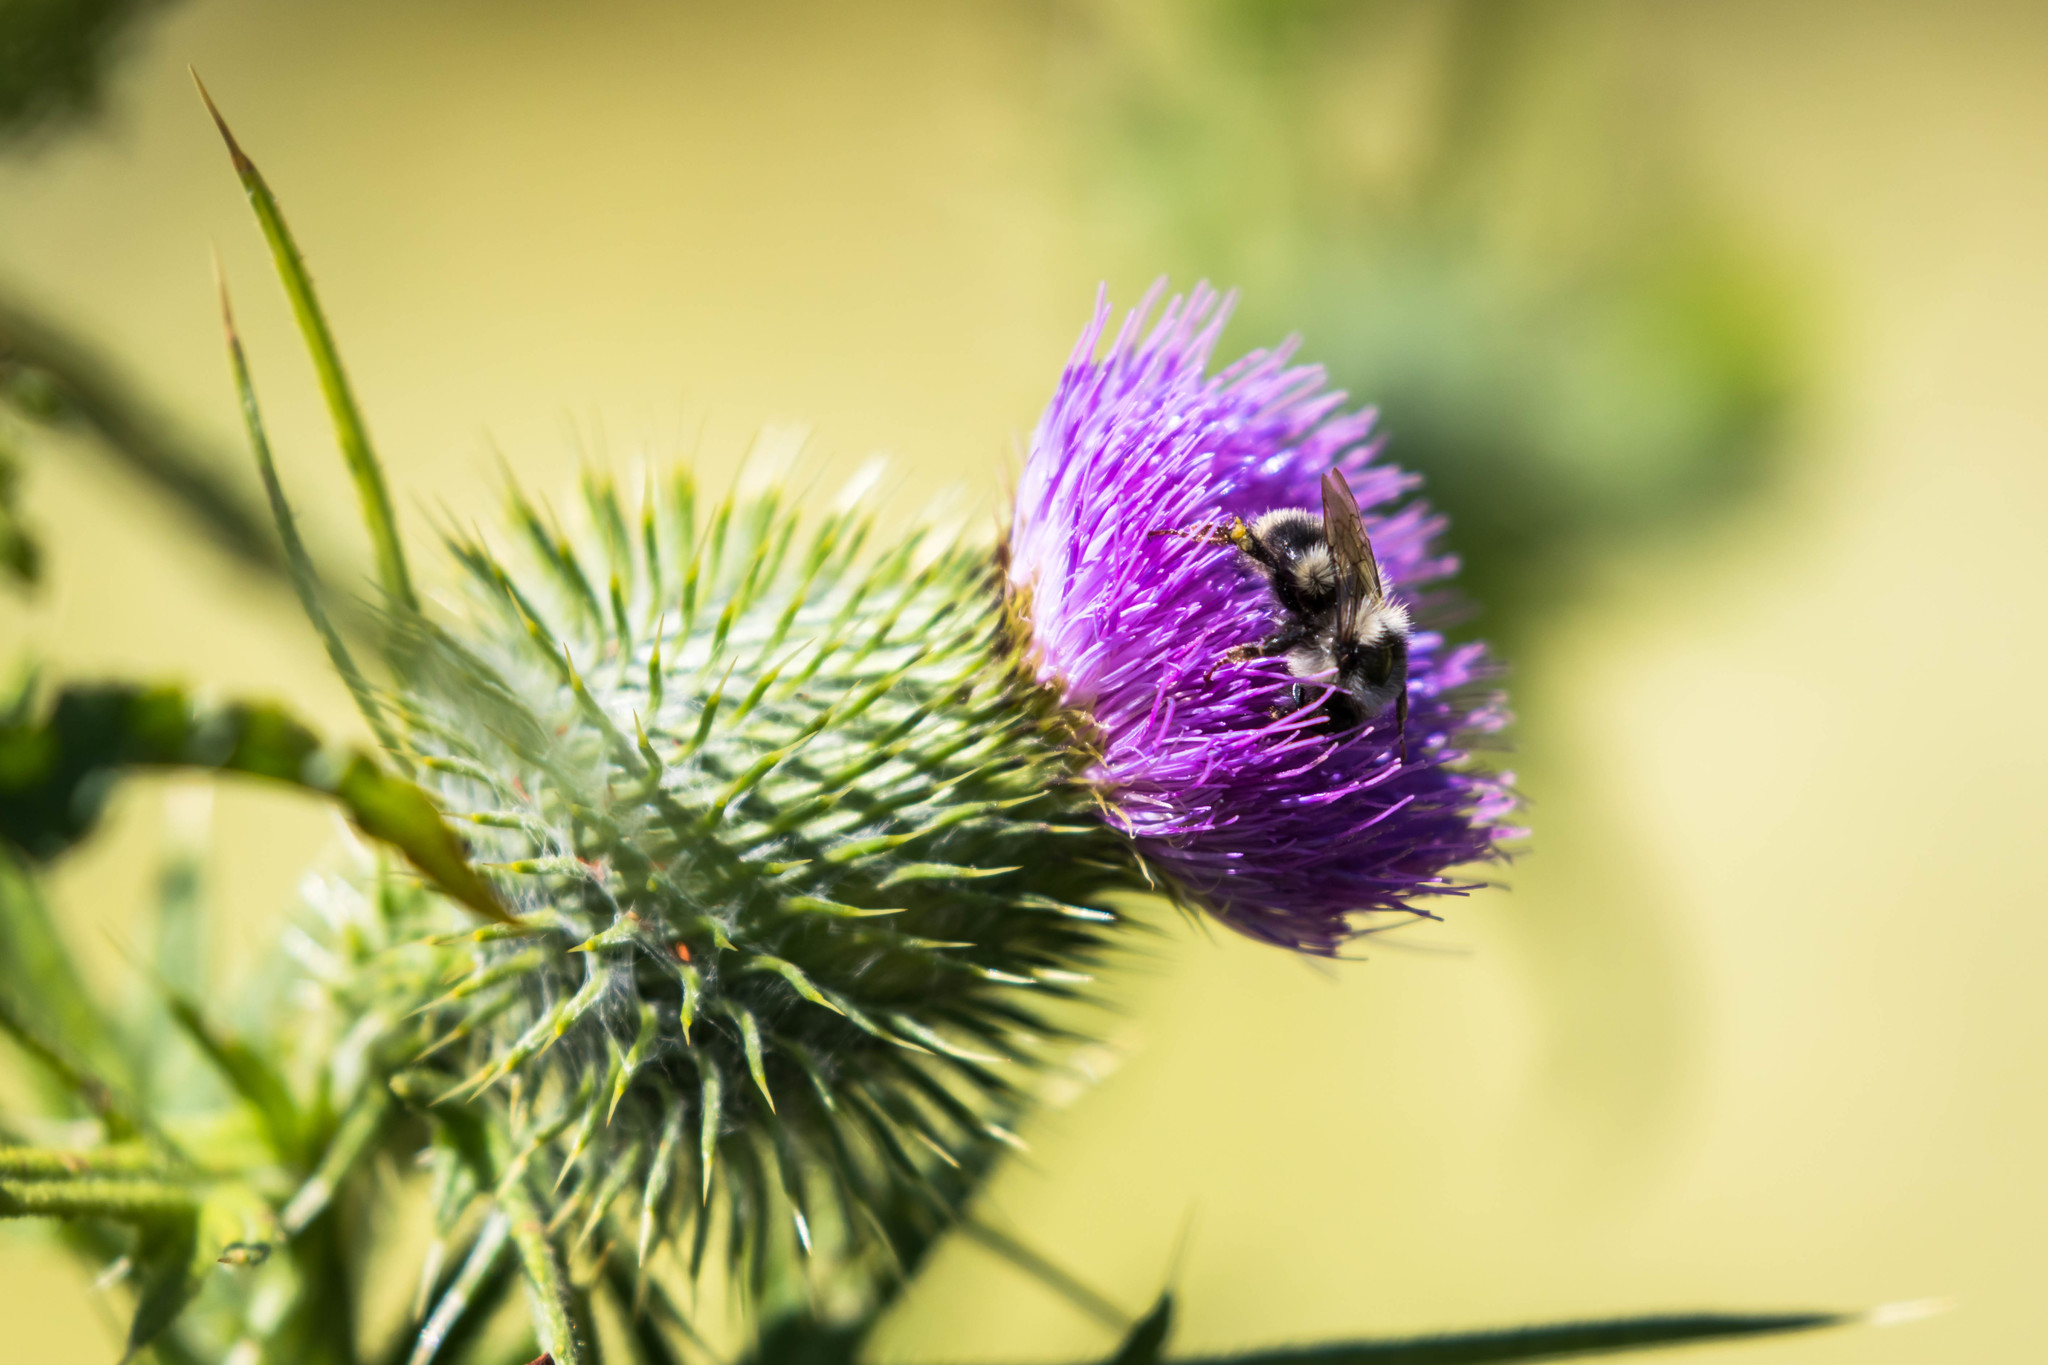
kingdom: Animalia
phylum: Arthropoda
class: Insecta
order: Hymenoptera
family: Apidae
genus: Bombus
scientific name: Bombus vancouverensis
